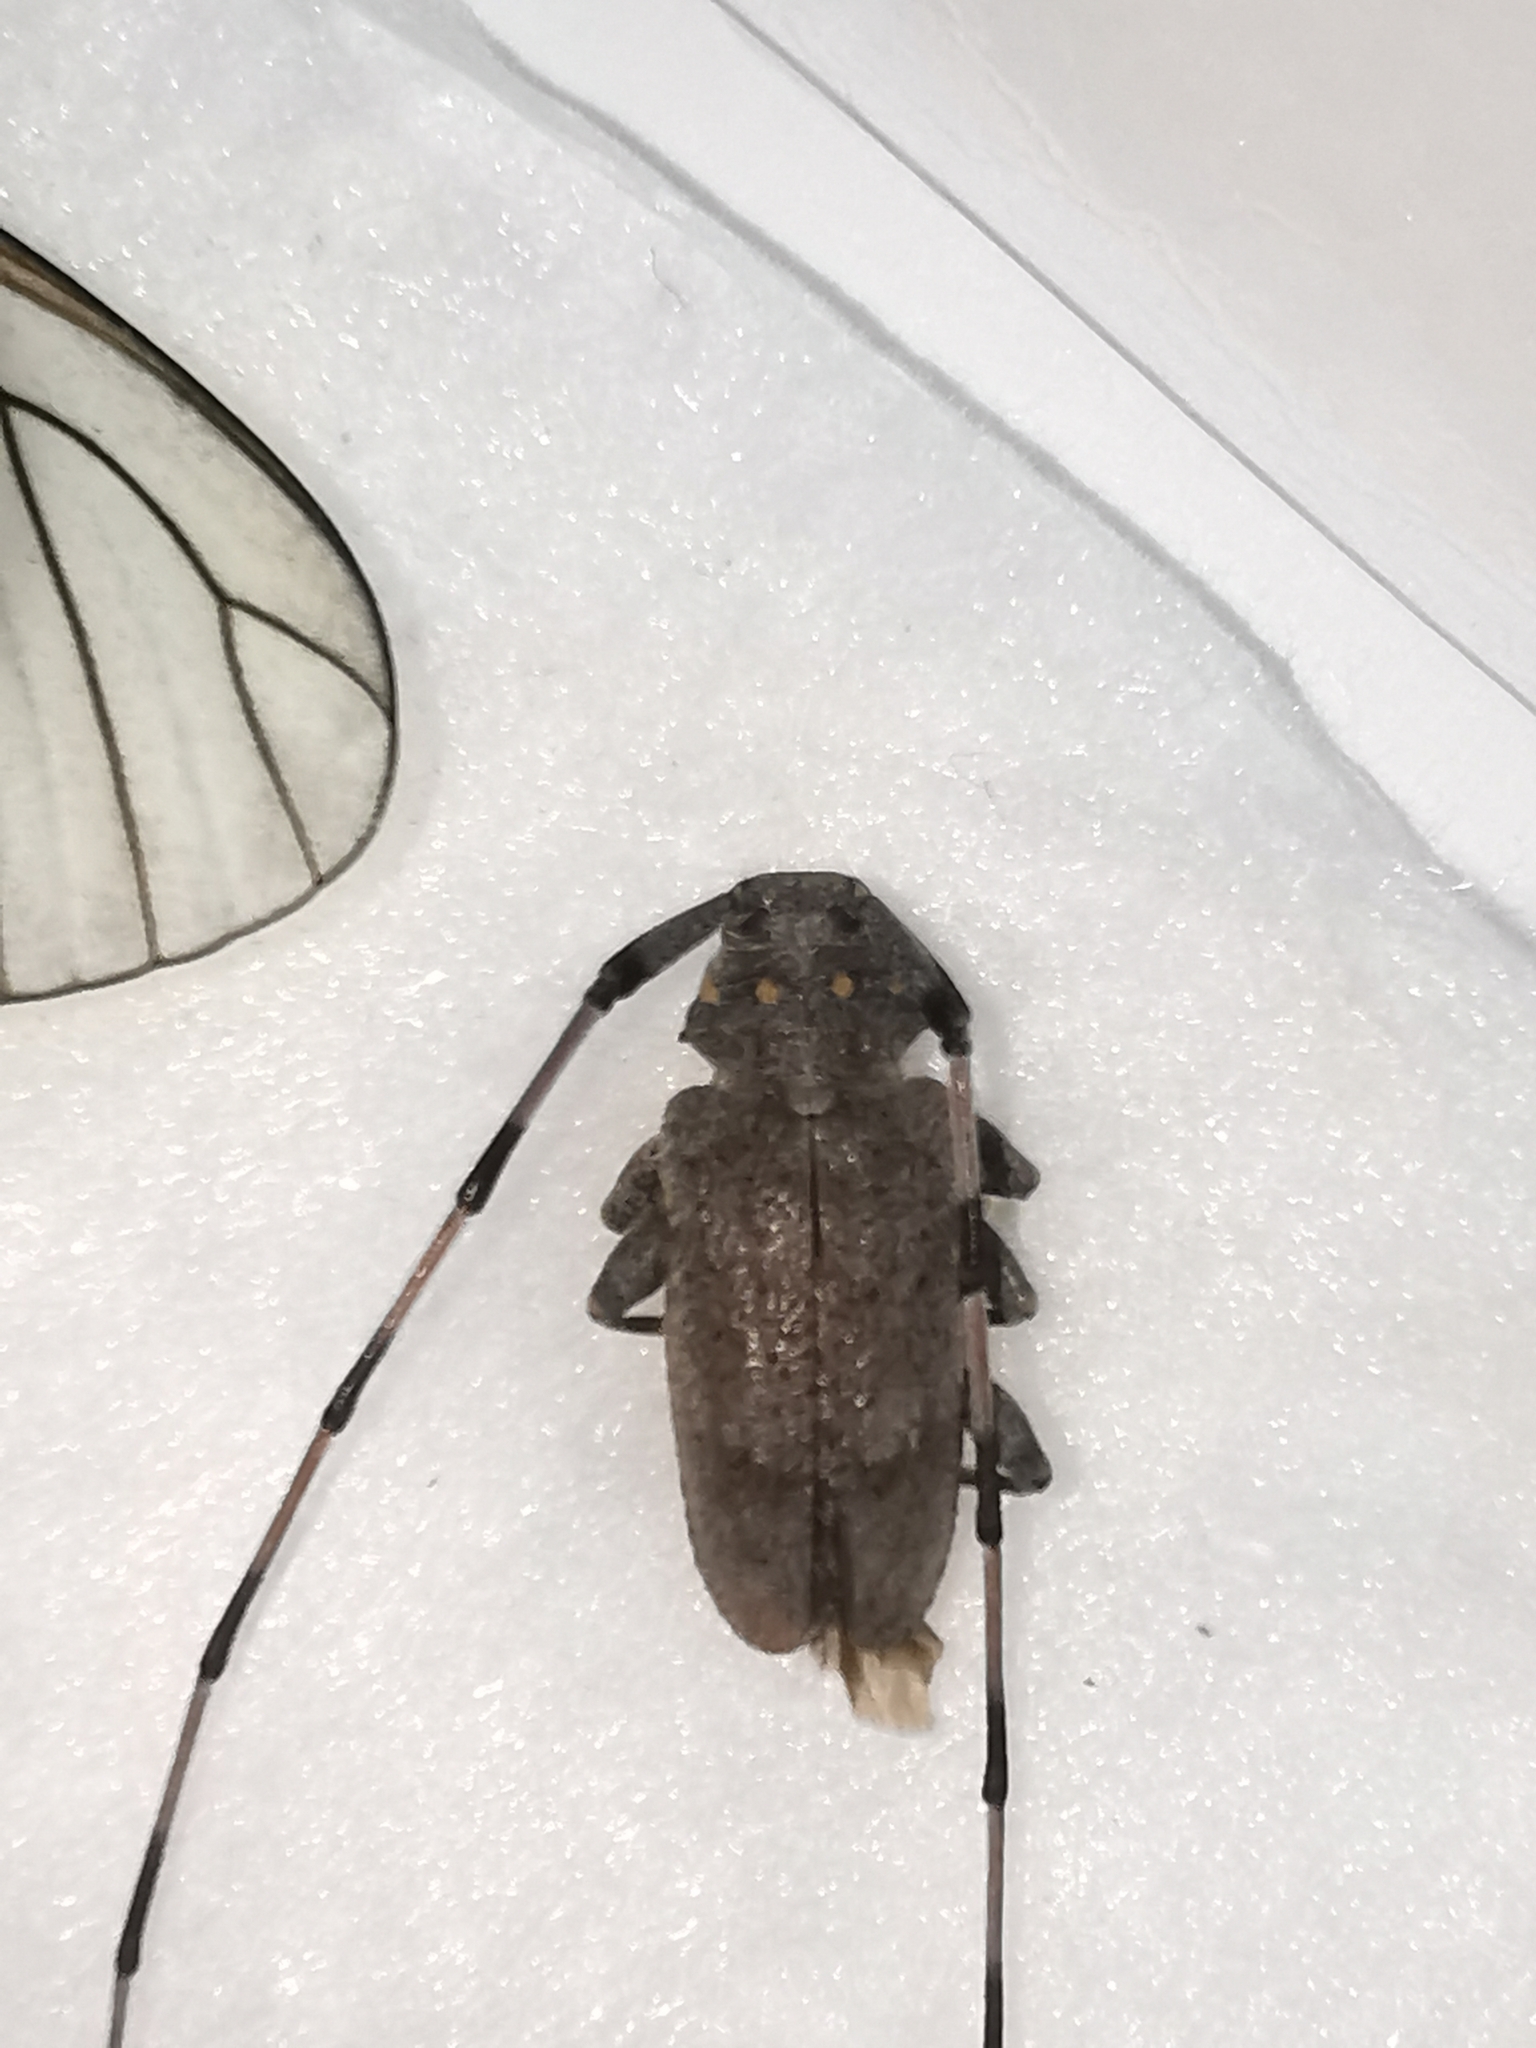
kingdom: Animalia
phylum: Arthropoda
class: Insecta
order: Coleoptera
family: Cerambycidae
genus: Acanthocinus
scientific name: Acanthocinus aedilis
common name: Timberman beetle
